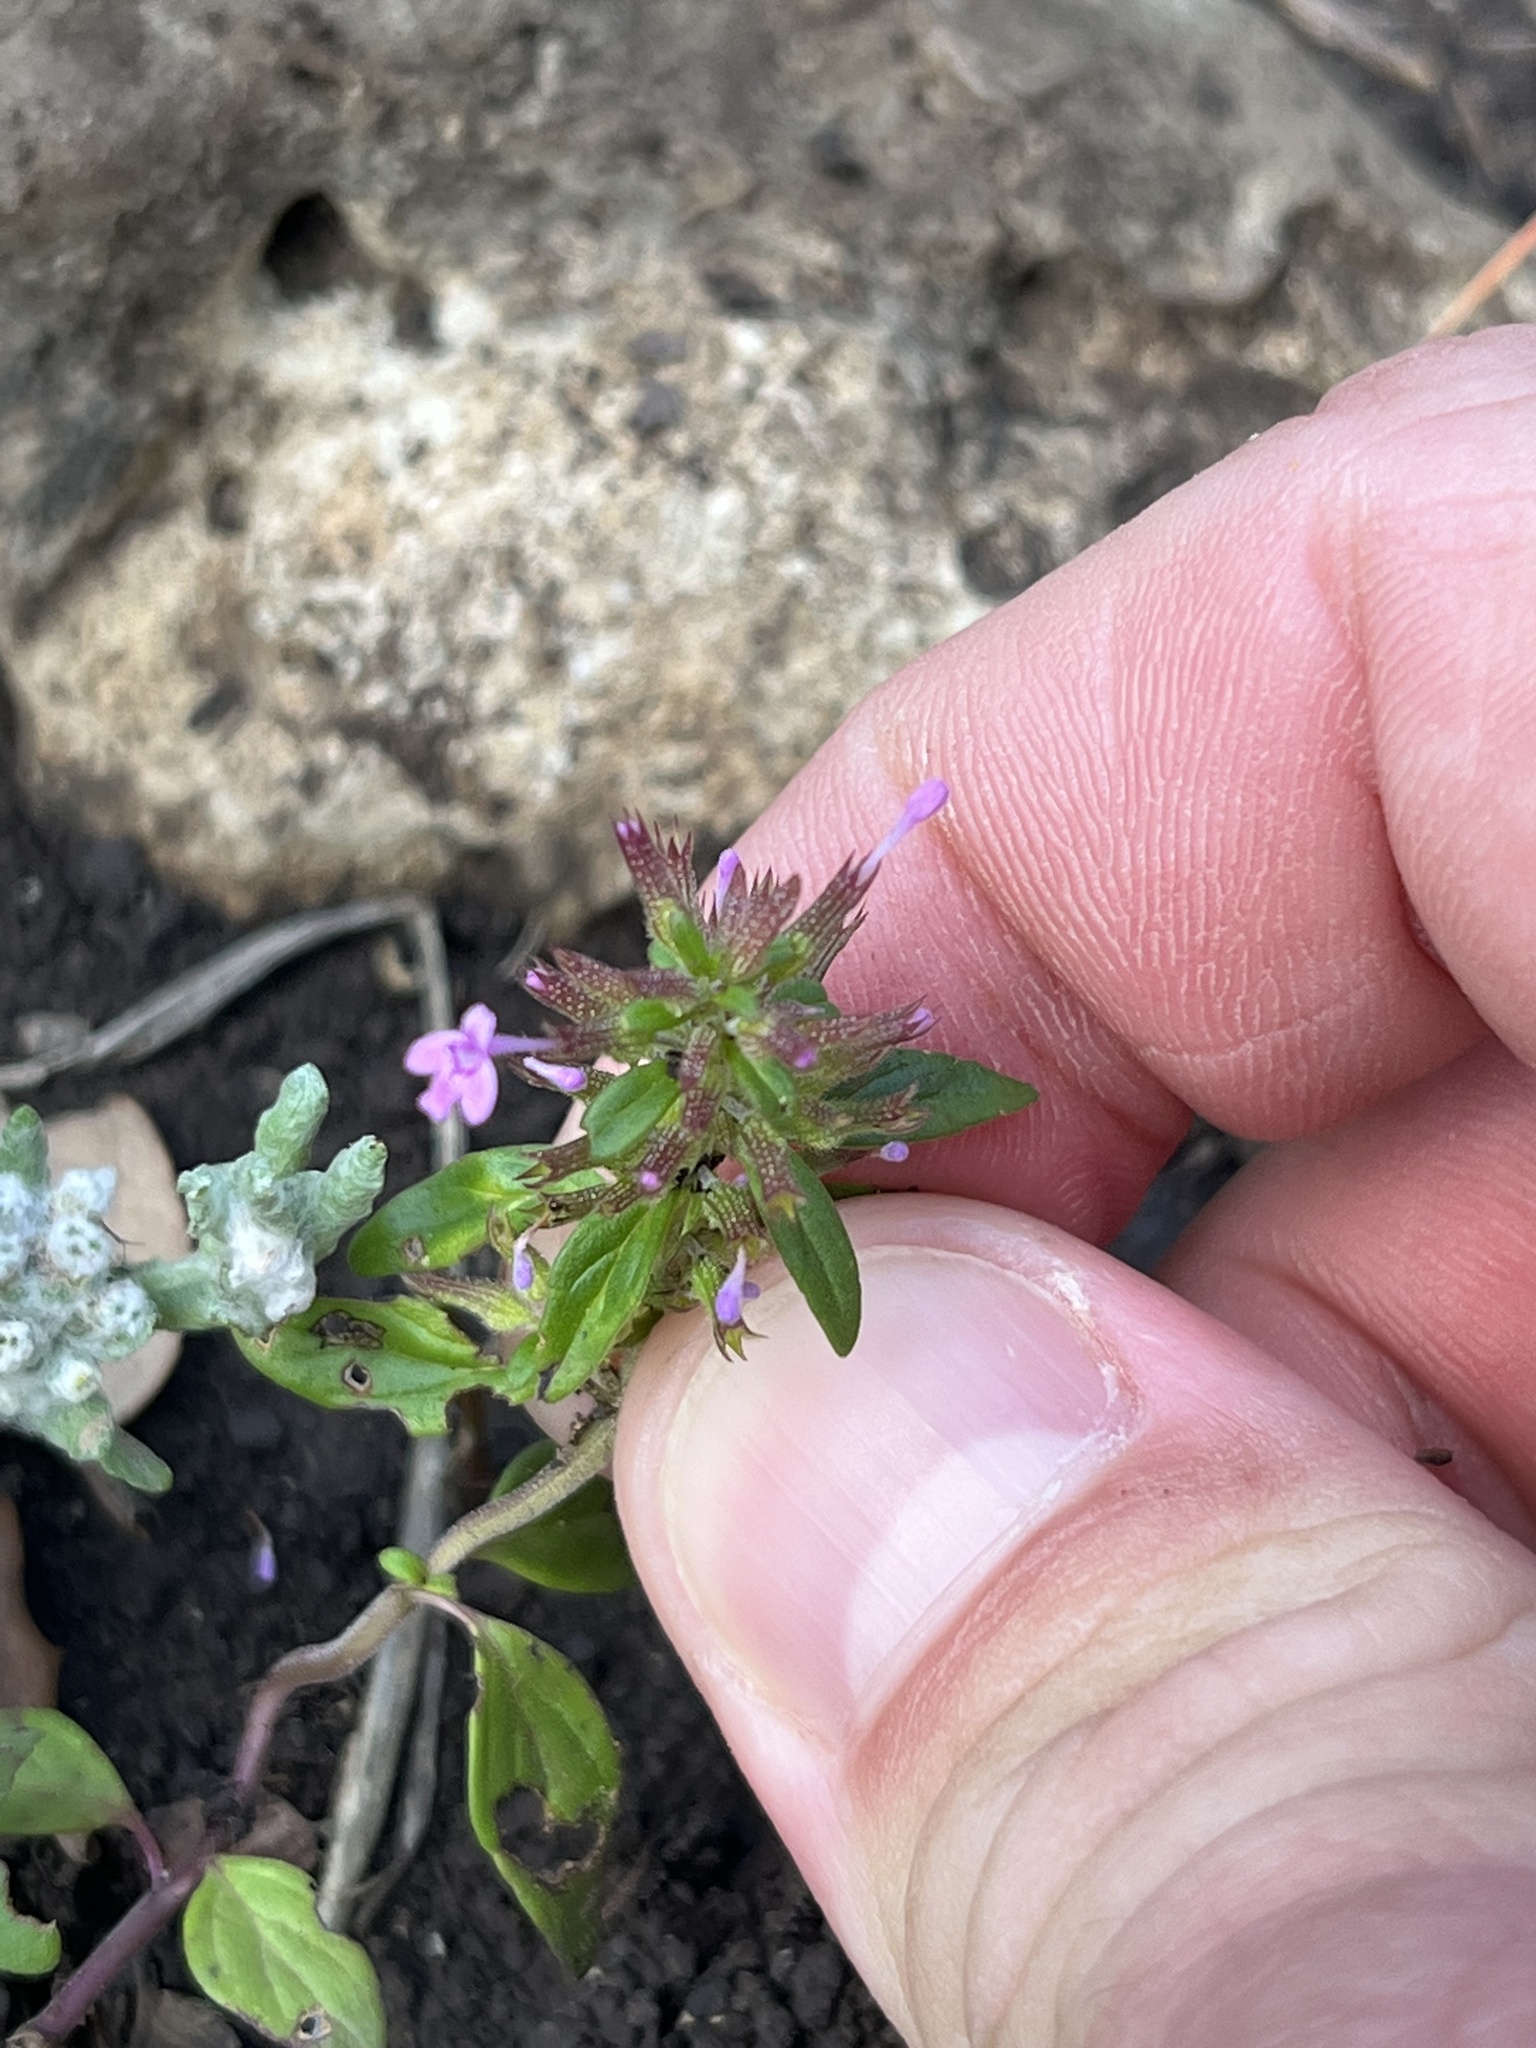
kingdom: Plantae
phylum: Tracheophyta
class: Magnoliopsida
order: Lamiales
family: Lamiaceae
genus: Hedeoma
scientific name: Hedeoma acinoides
